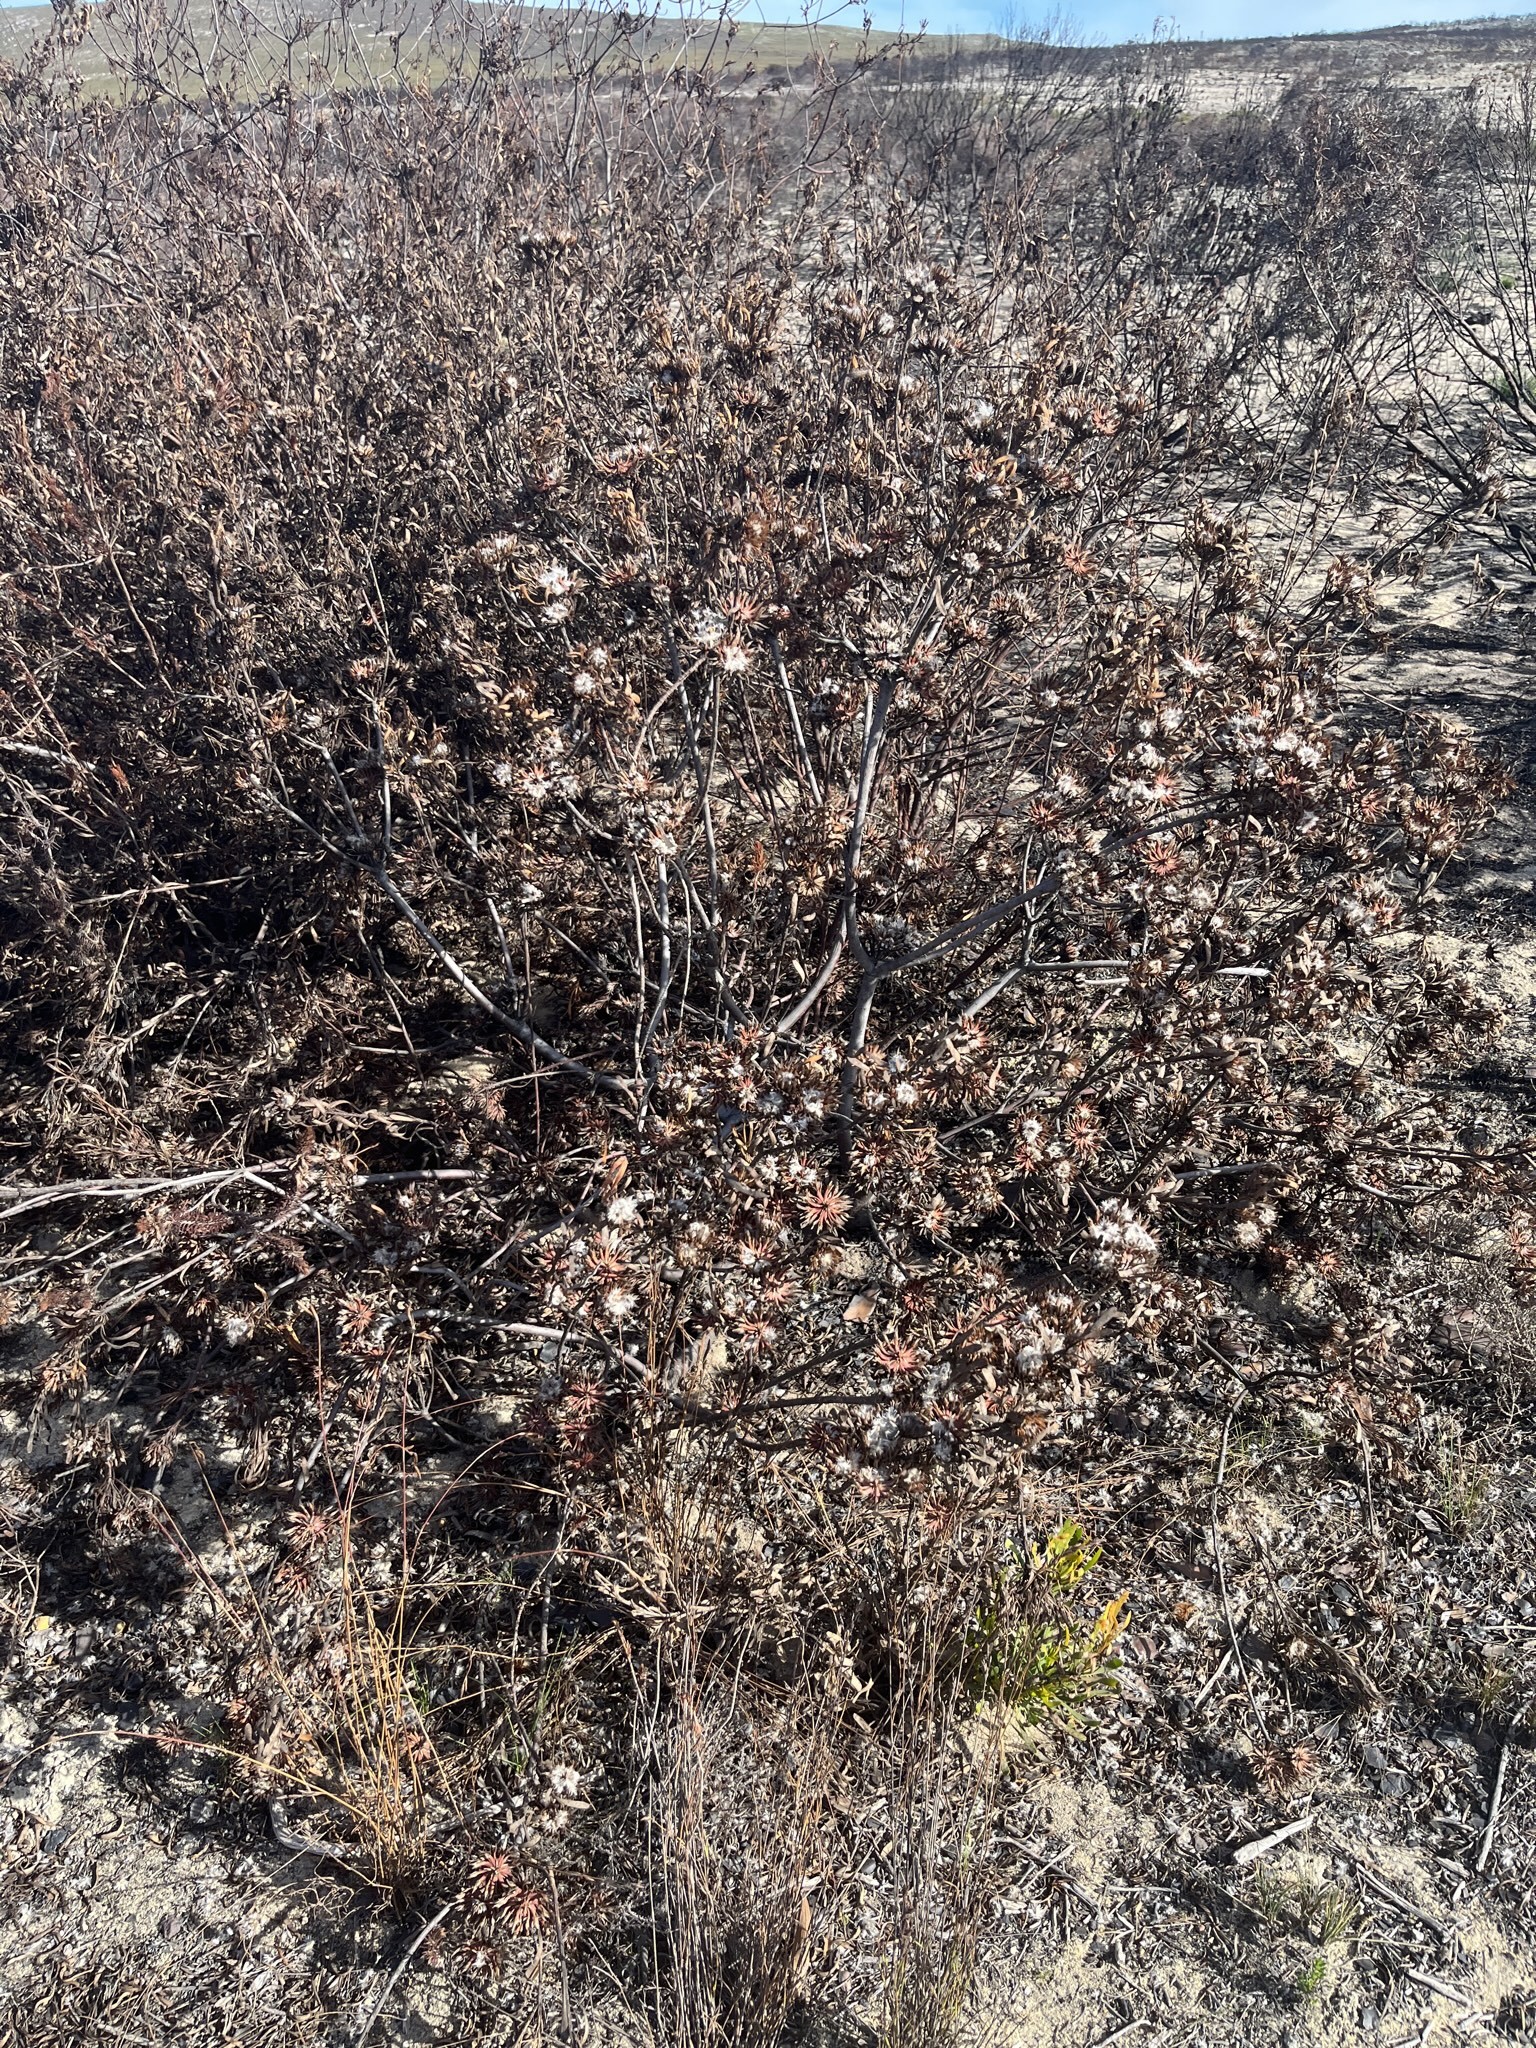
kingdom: Plantae
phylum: Tracheophyta
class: Magnoliopsida
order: Proteales
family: Proteaceae
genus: Aulax
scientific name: Aulax umbellata
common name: Broad-leaf featherbush
